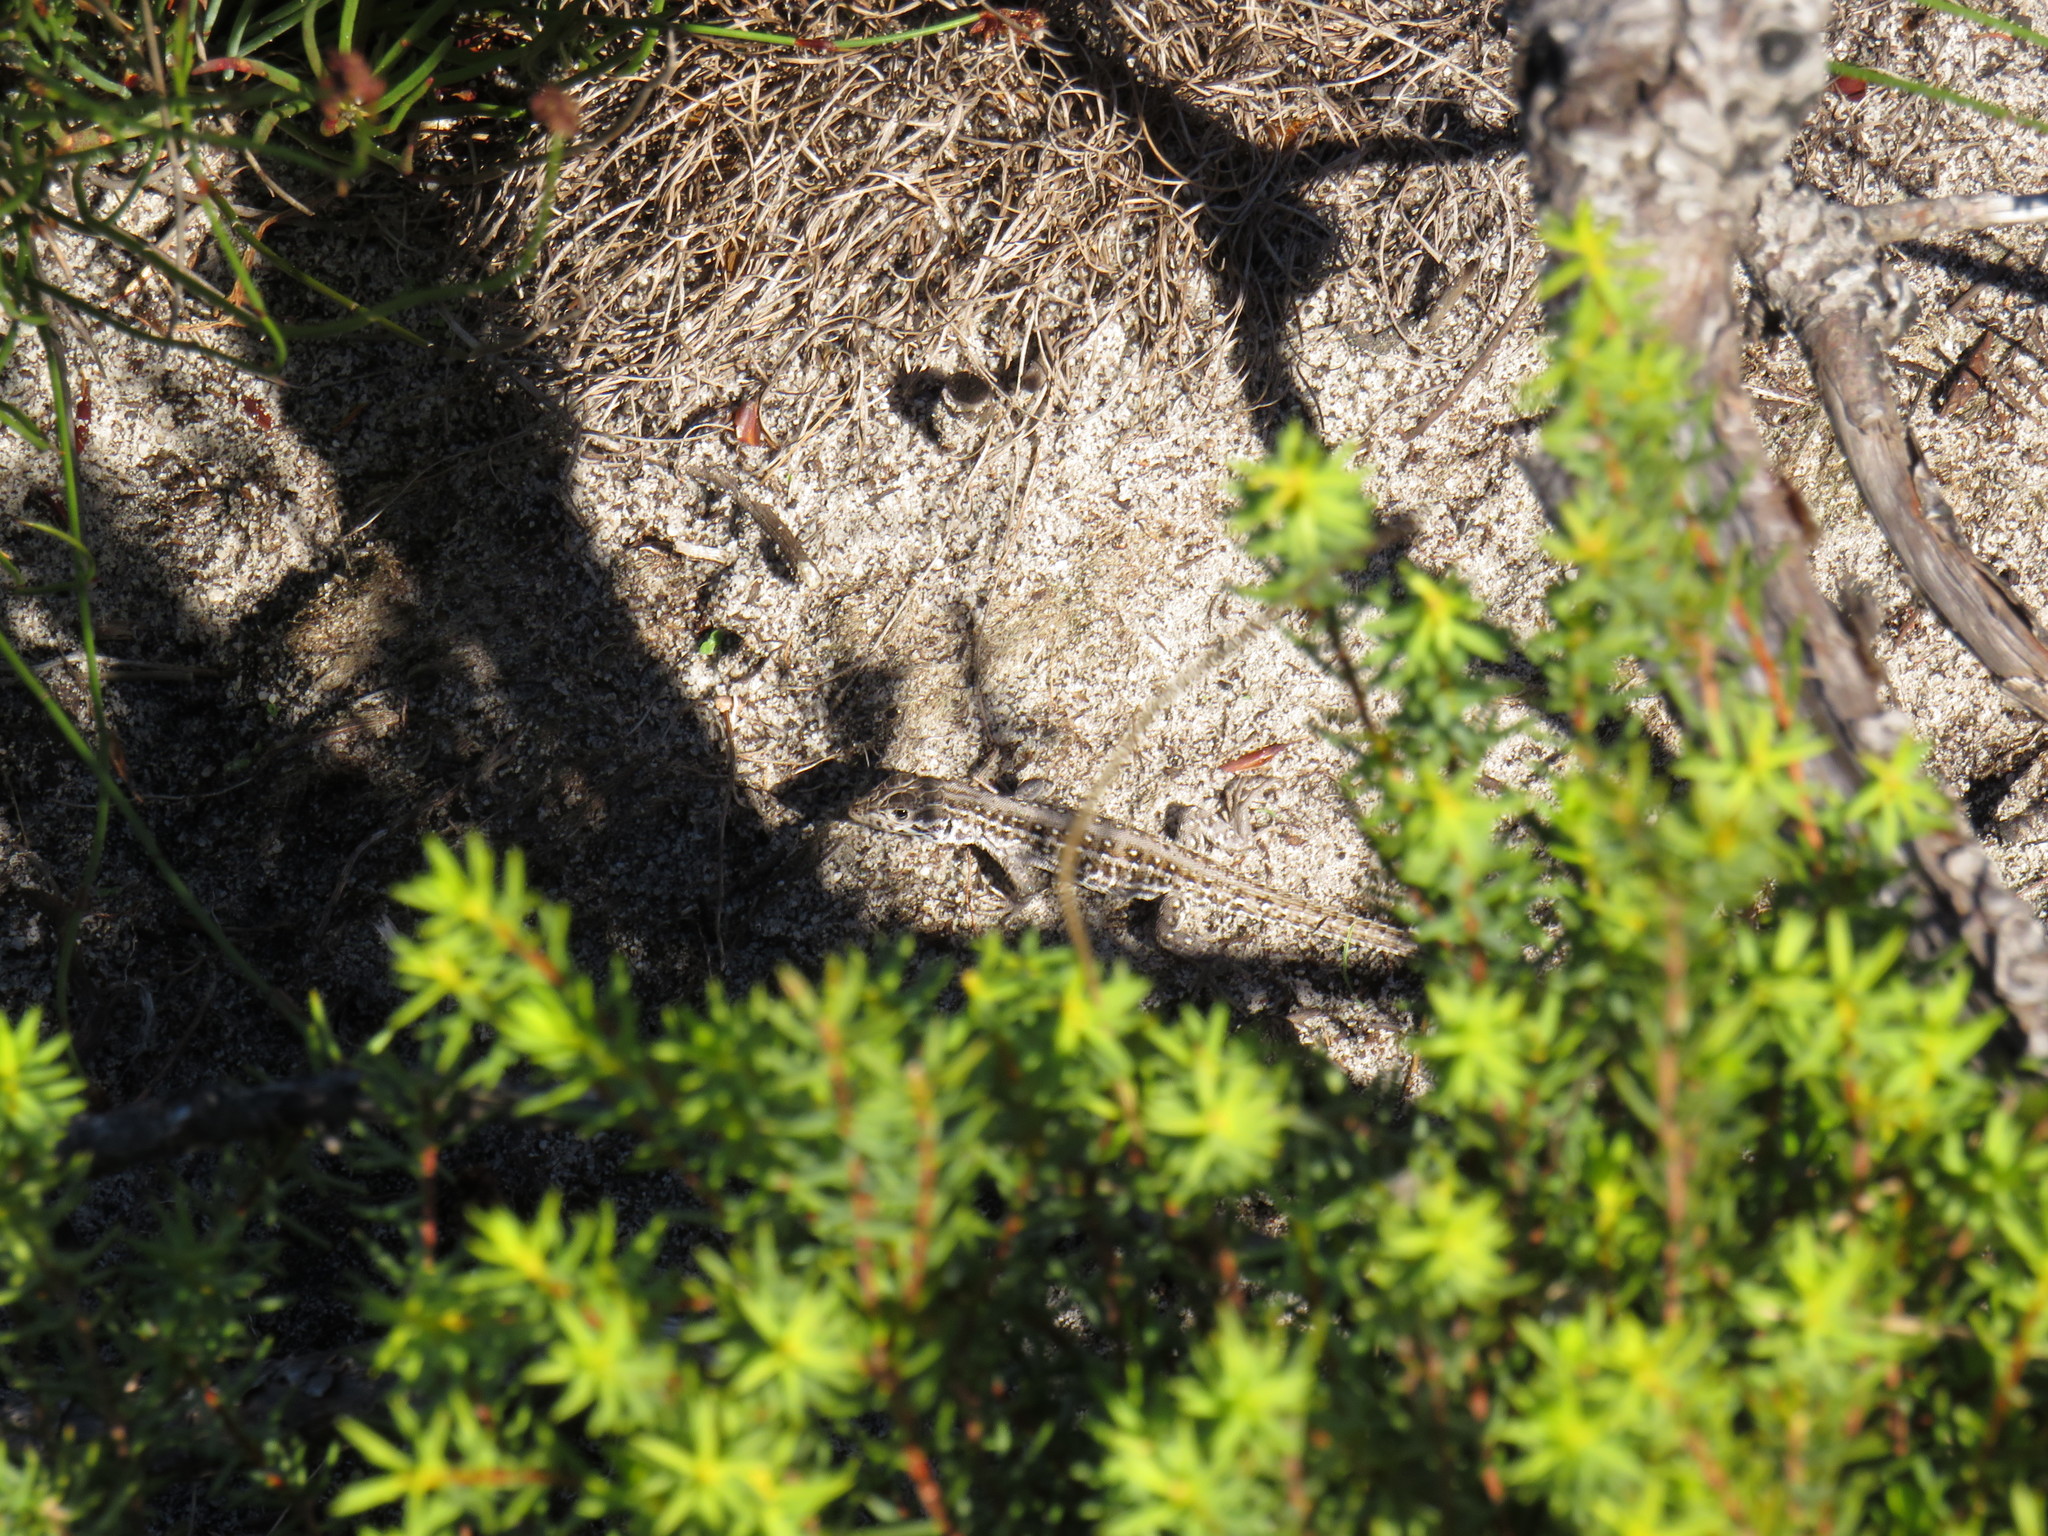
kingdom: Animalia
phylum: Chordata
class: Squamata
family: Lacertidae
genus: Meroles
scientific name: Meroles knoxii
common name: Knox's desert lizard
